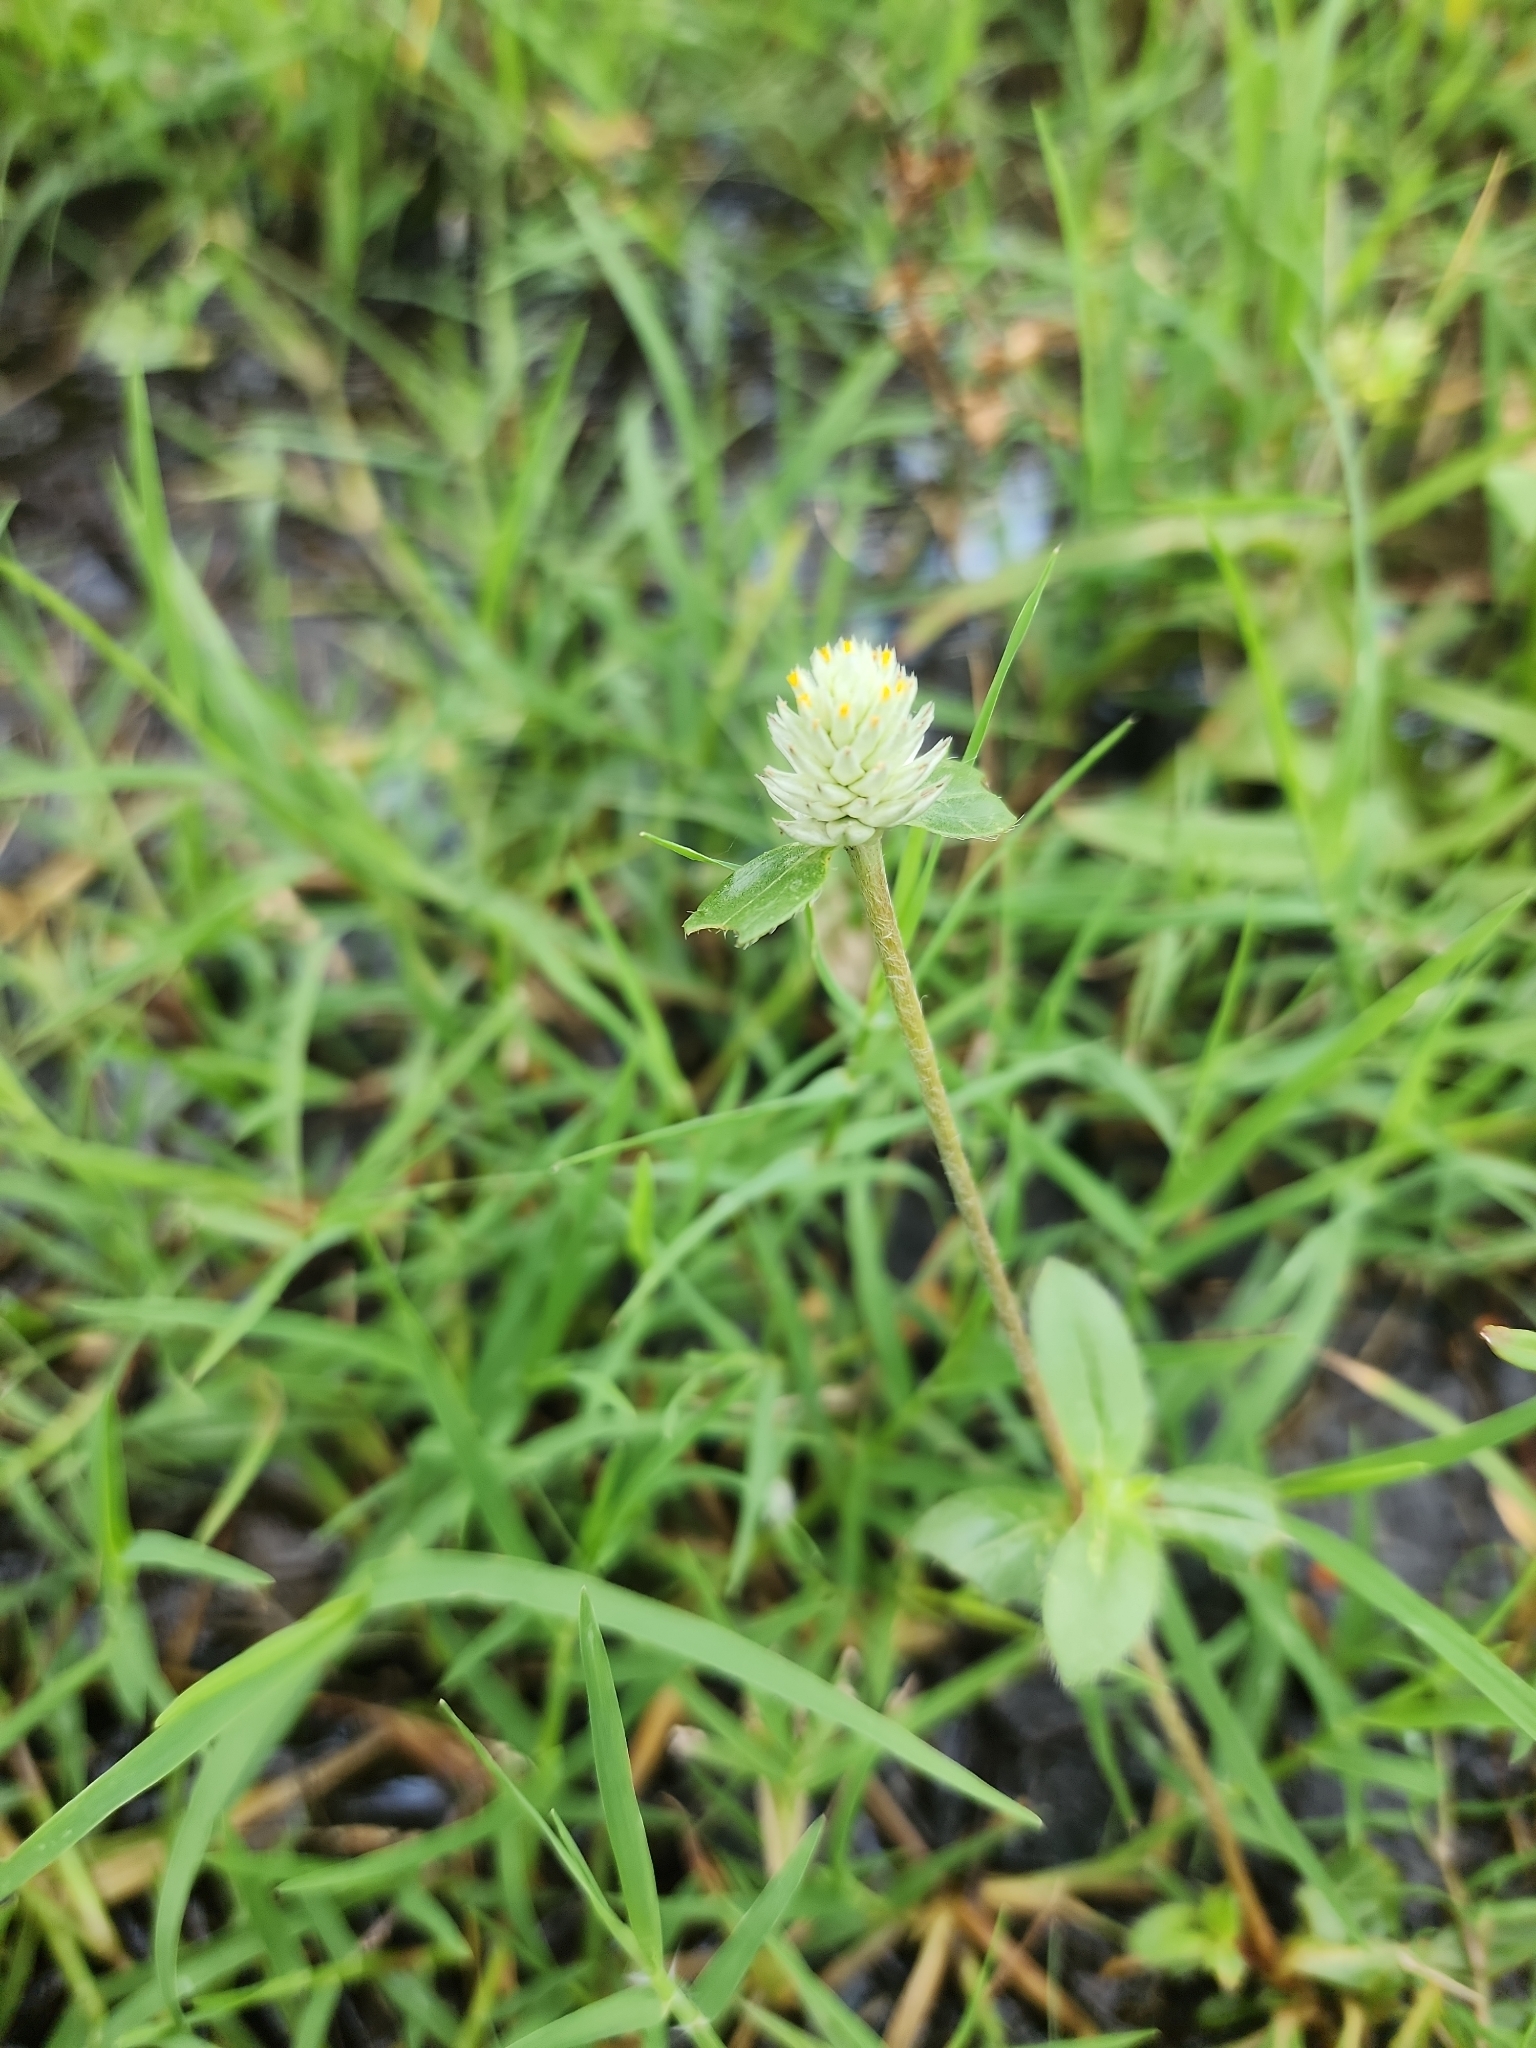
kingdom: Plantae
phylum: Tracheophyta
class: Magnoliopsida
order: Caryophyllales
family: Amaranthaceae
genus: Gomphrena
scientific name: Gomphrena serrata
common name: Arrasa con todo
